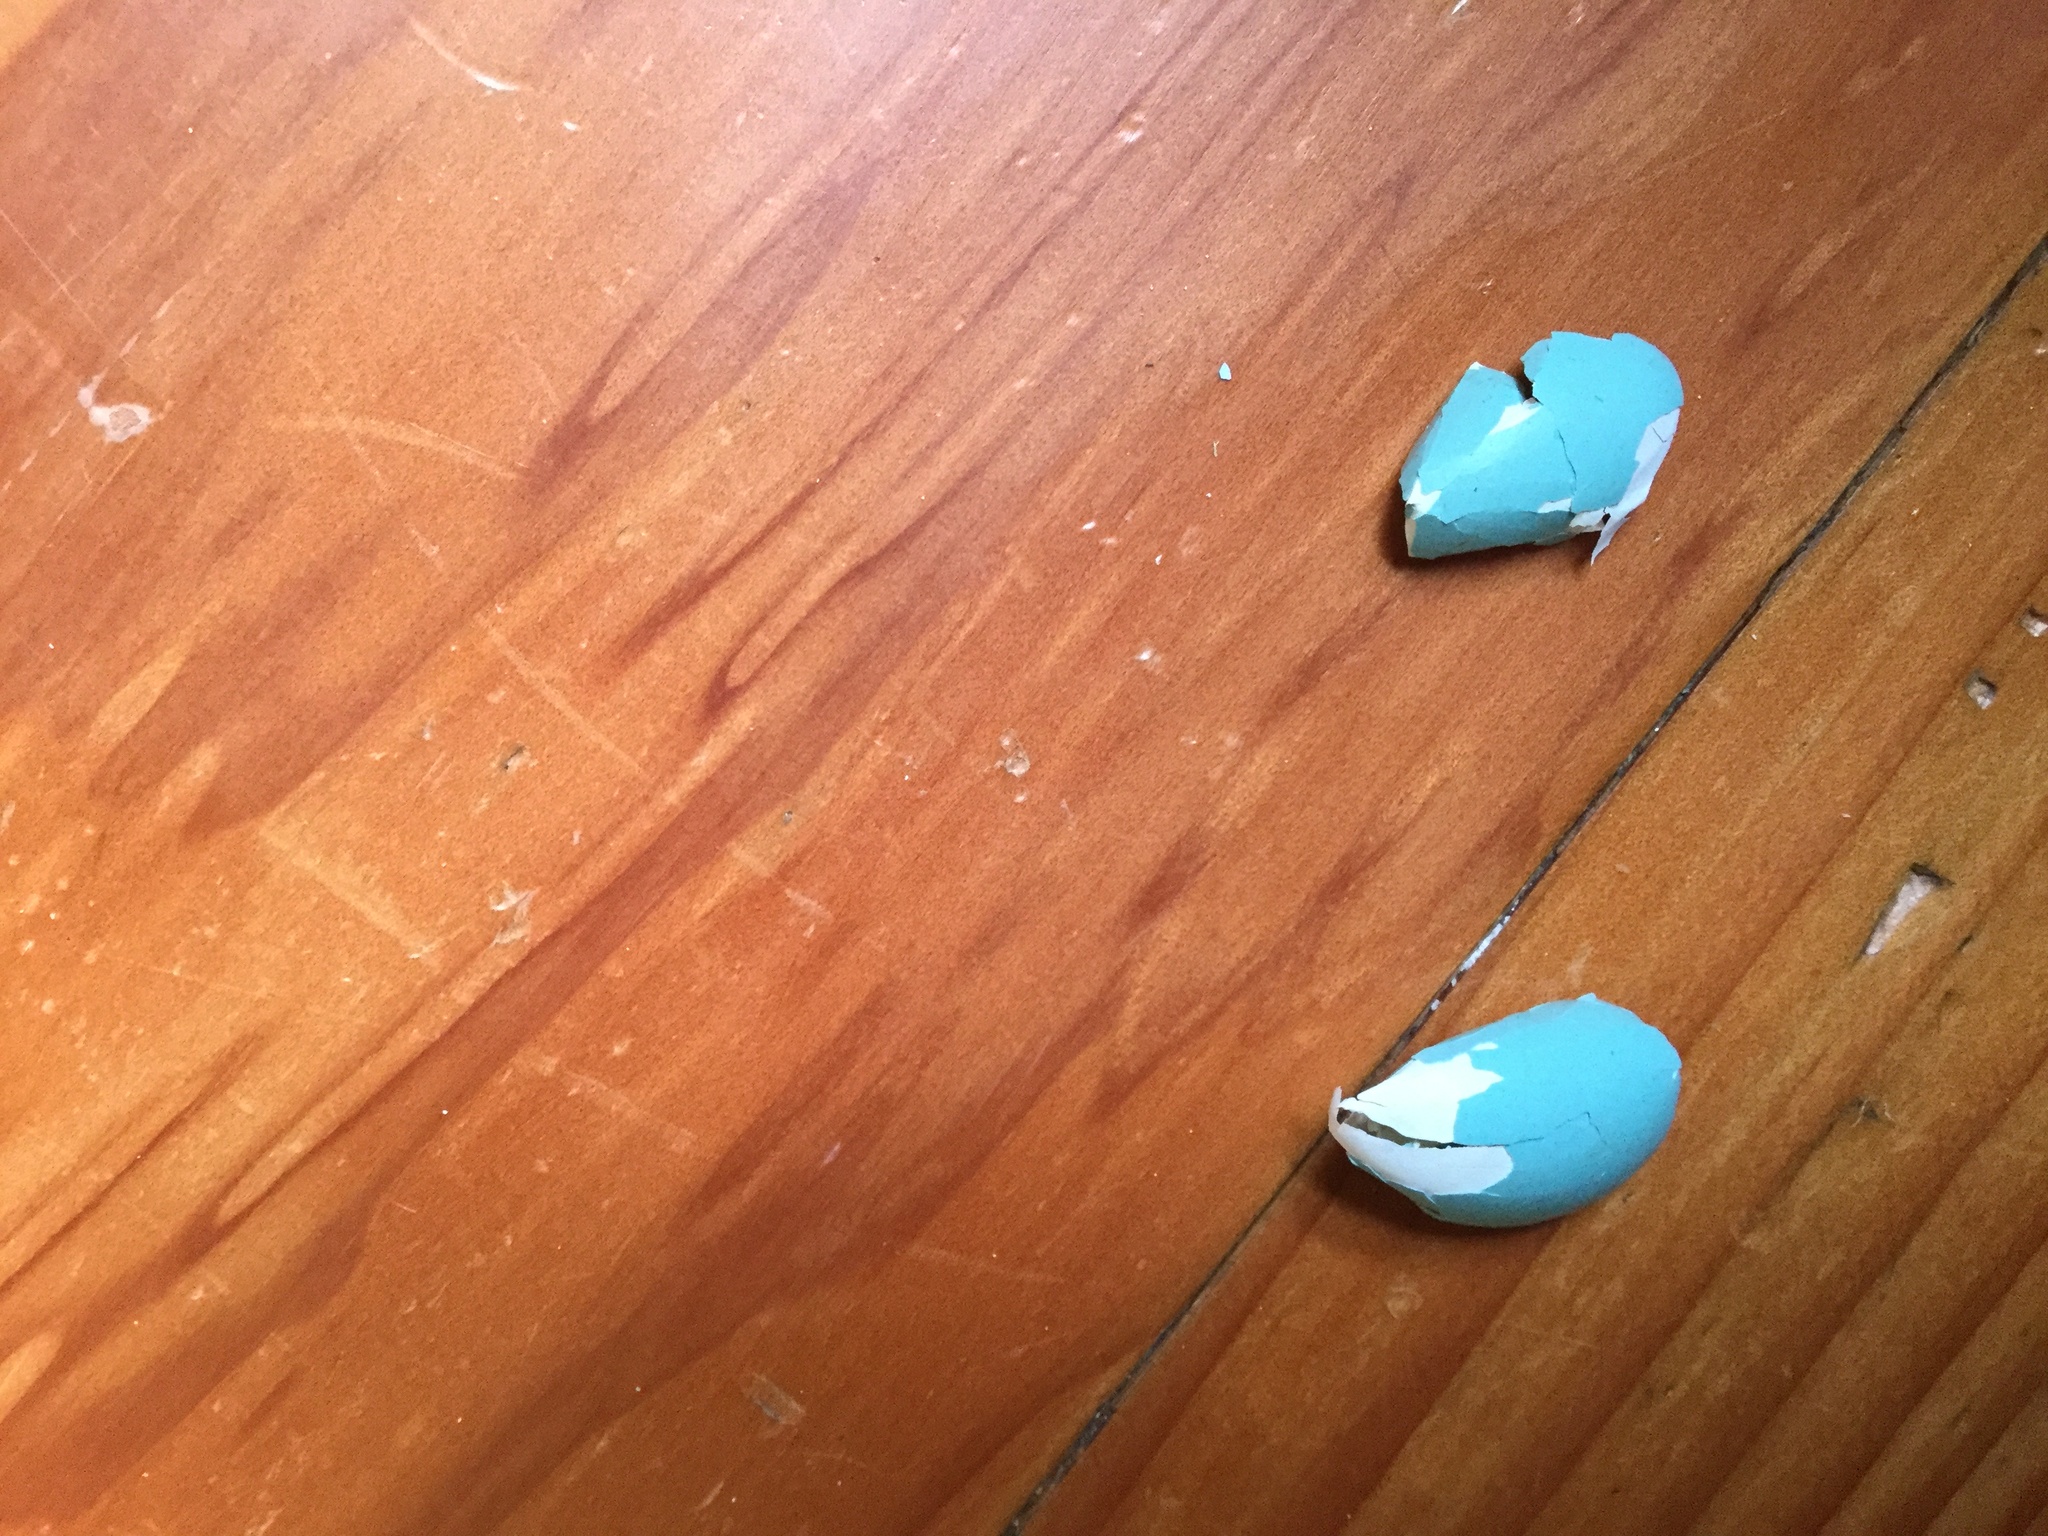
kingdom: Animalia
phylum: Chordata
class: Aves
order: Passeriformes
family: Turdidae
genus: Turdus
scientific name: Turdus migratorius
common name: American robin
